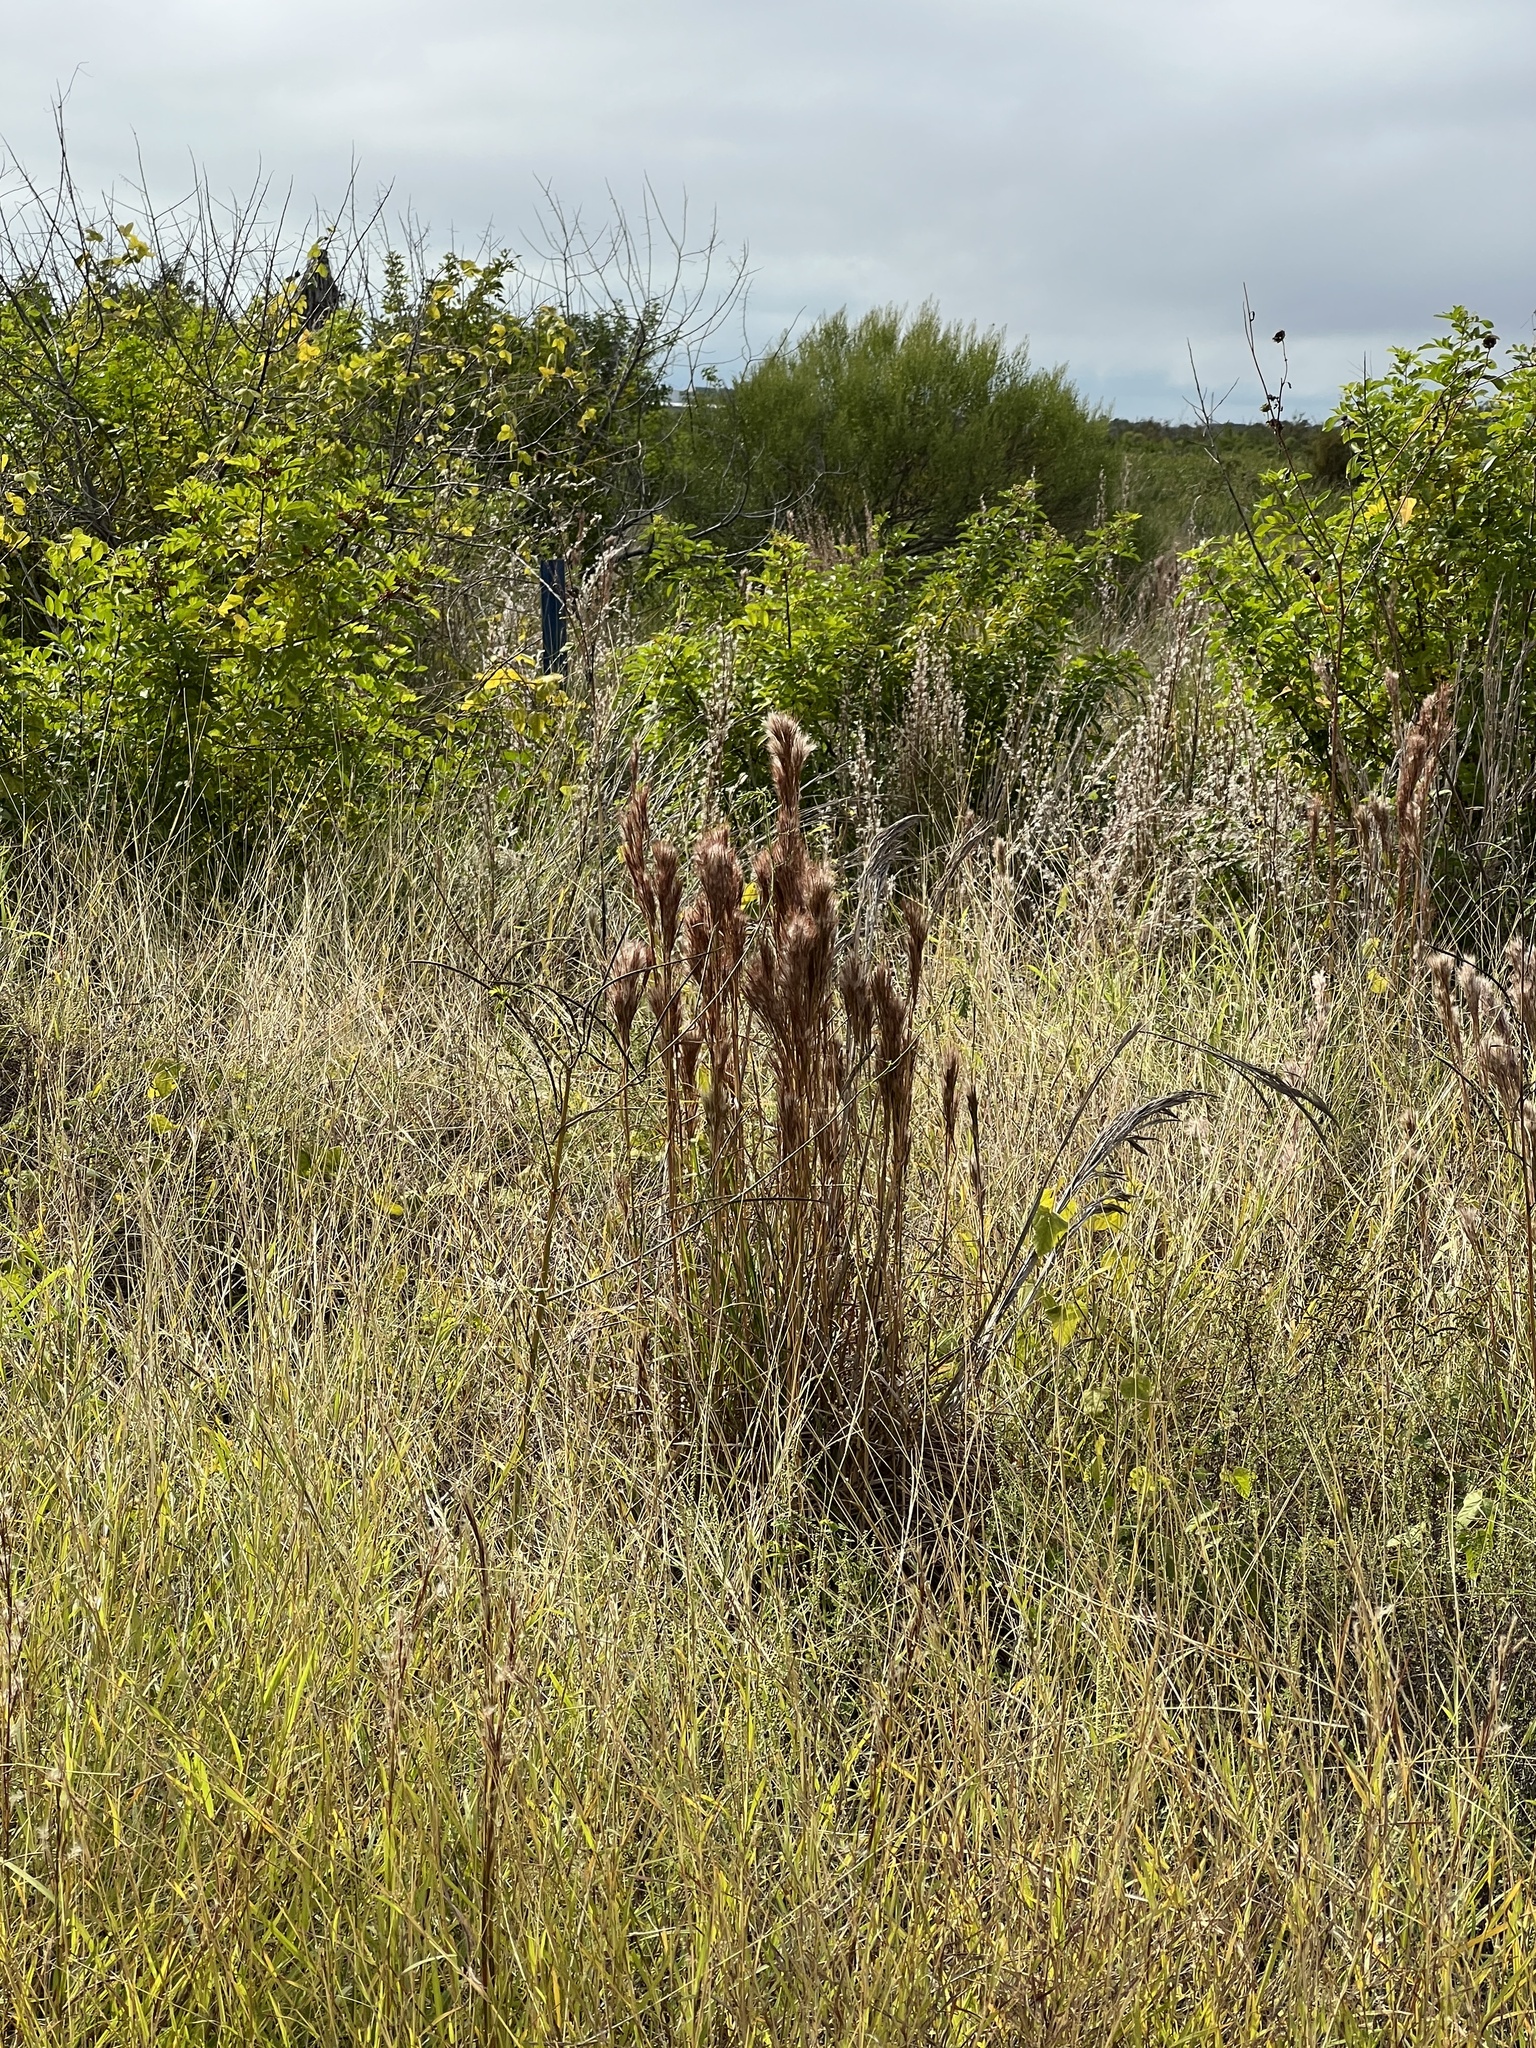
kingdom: Plantae
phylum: Tracheophyta
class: Liliopsida
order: Poales
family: Poaceae
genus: Andropogon
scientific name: Andropogon tenuispatheus
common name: Bushy bluestem
